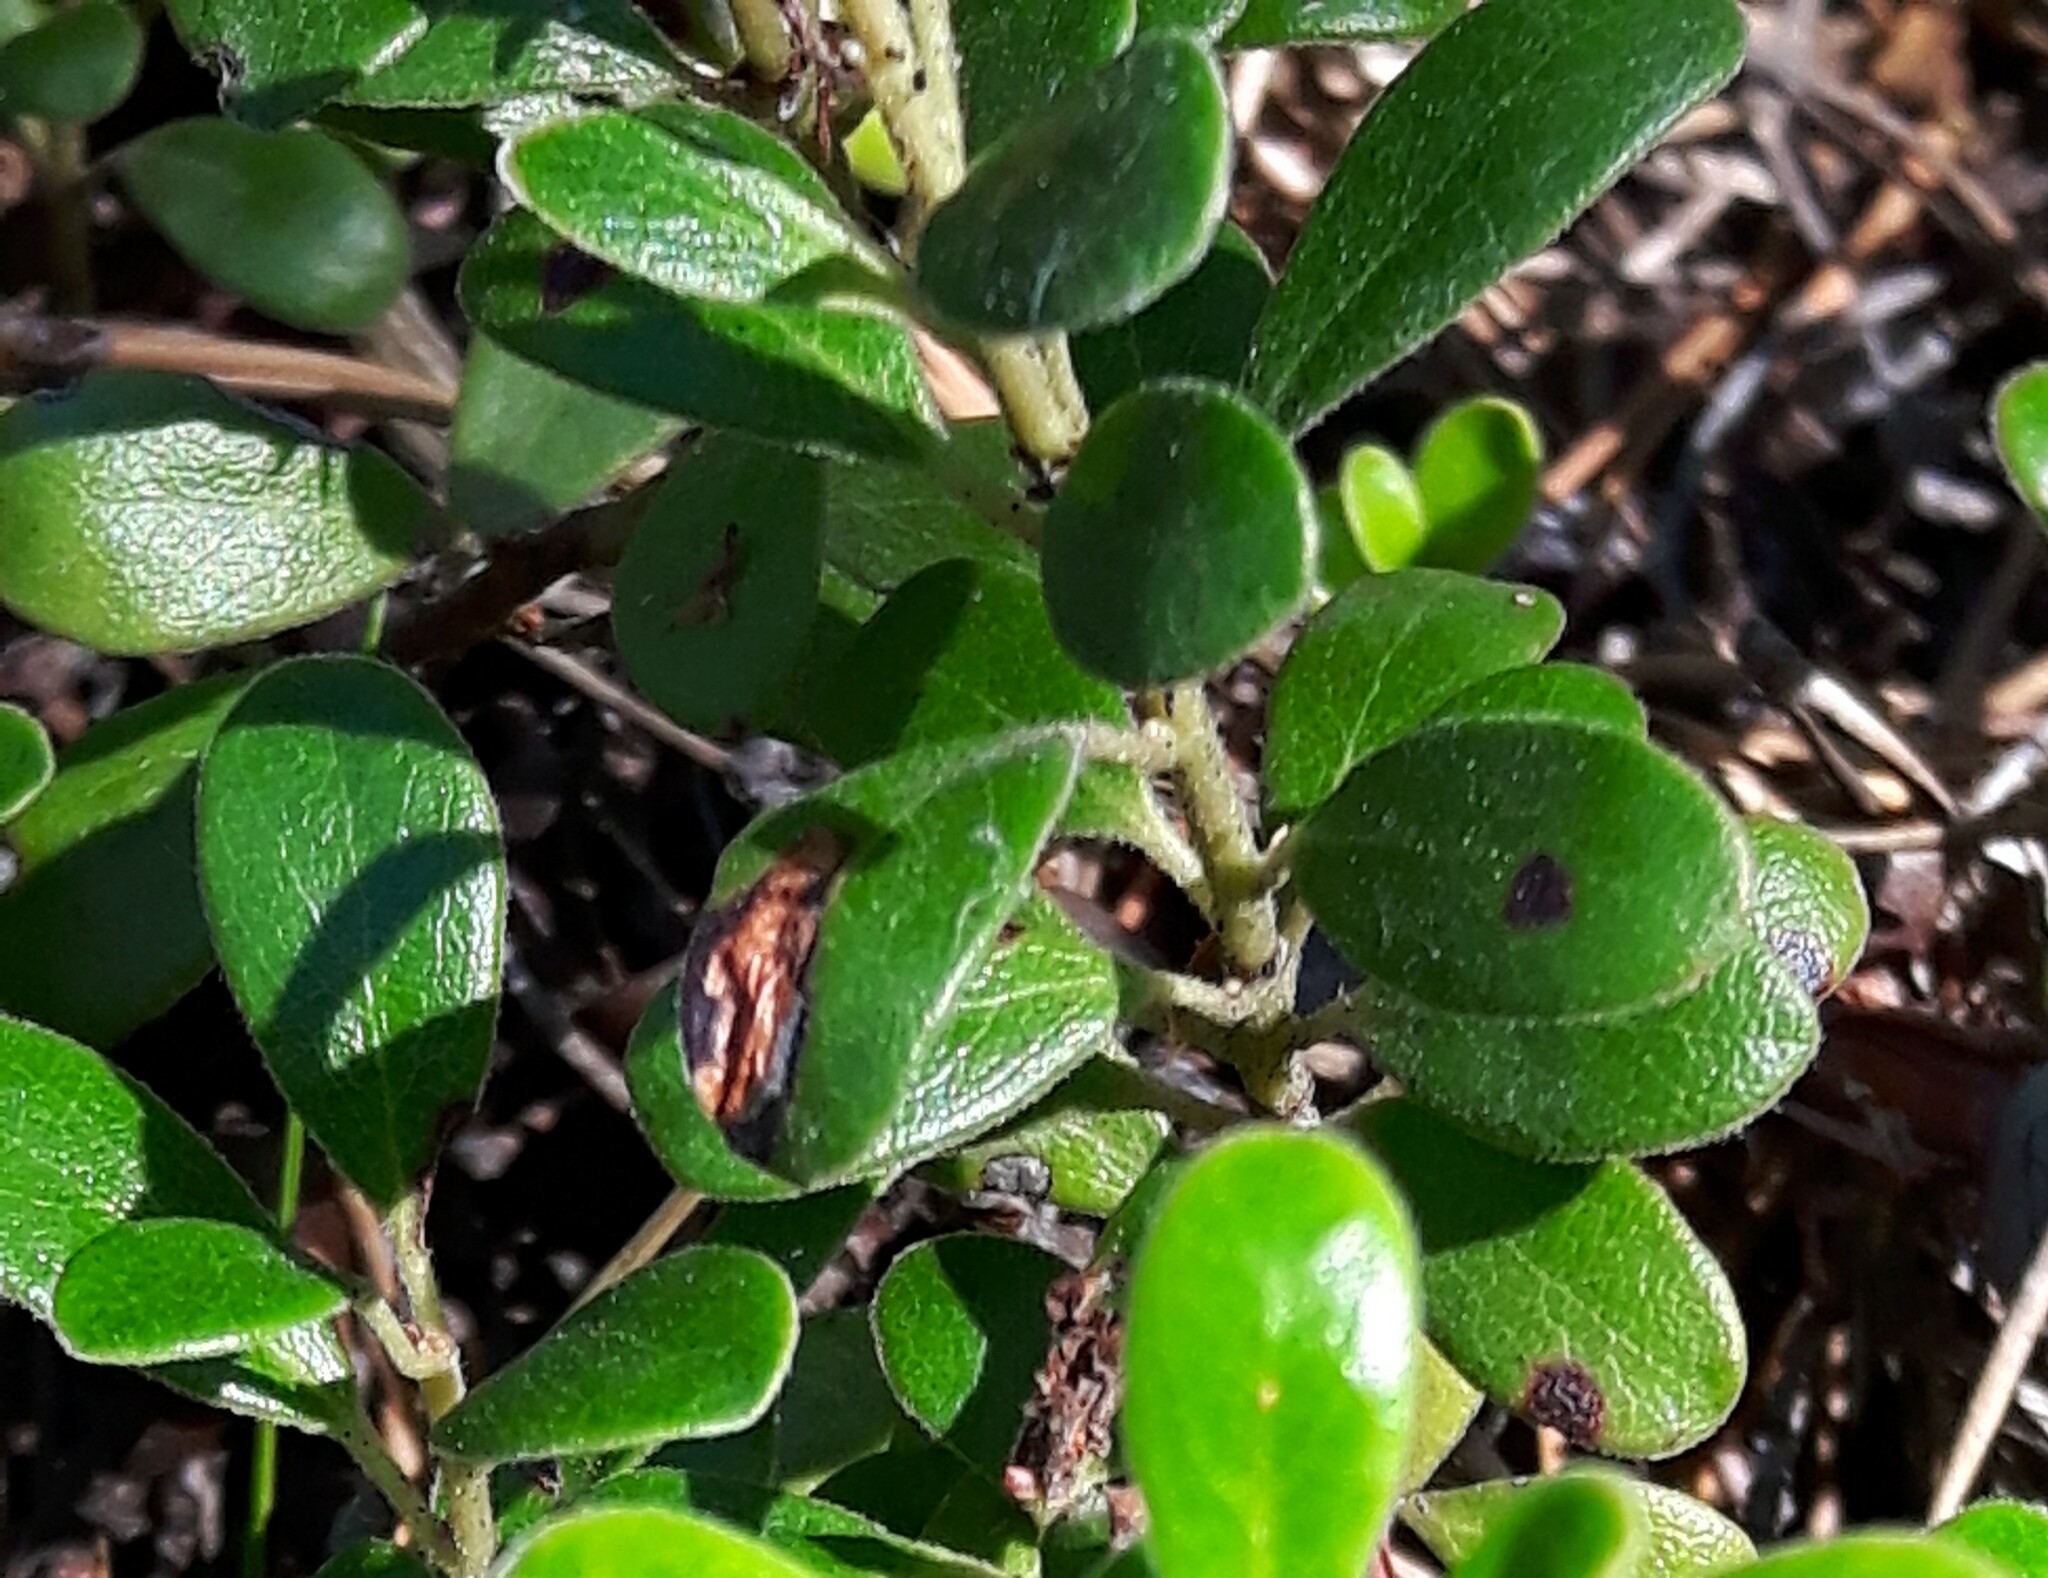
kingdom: Plantae
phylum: Tracheophyta
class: Magnoliopsida
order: Ericales
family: Ericaceae
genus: Arctostaphylos
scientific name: Arctostaphylos uva-ursi
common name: Bearberry
